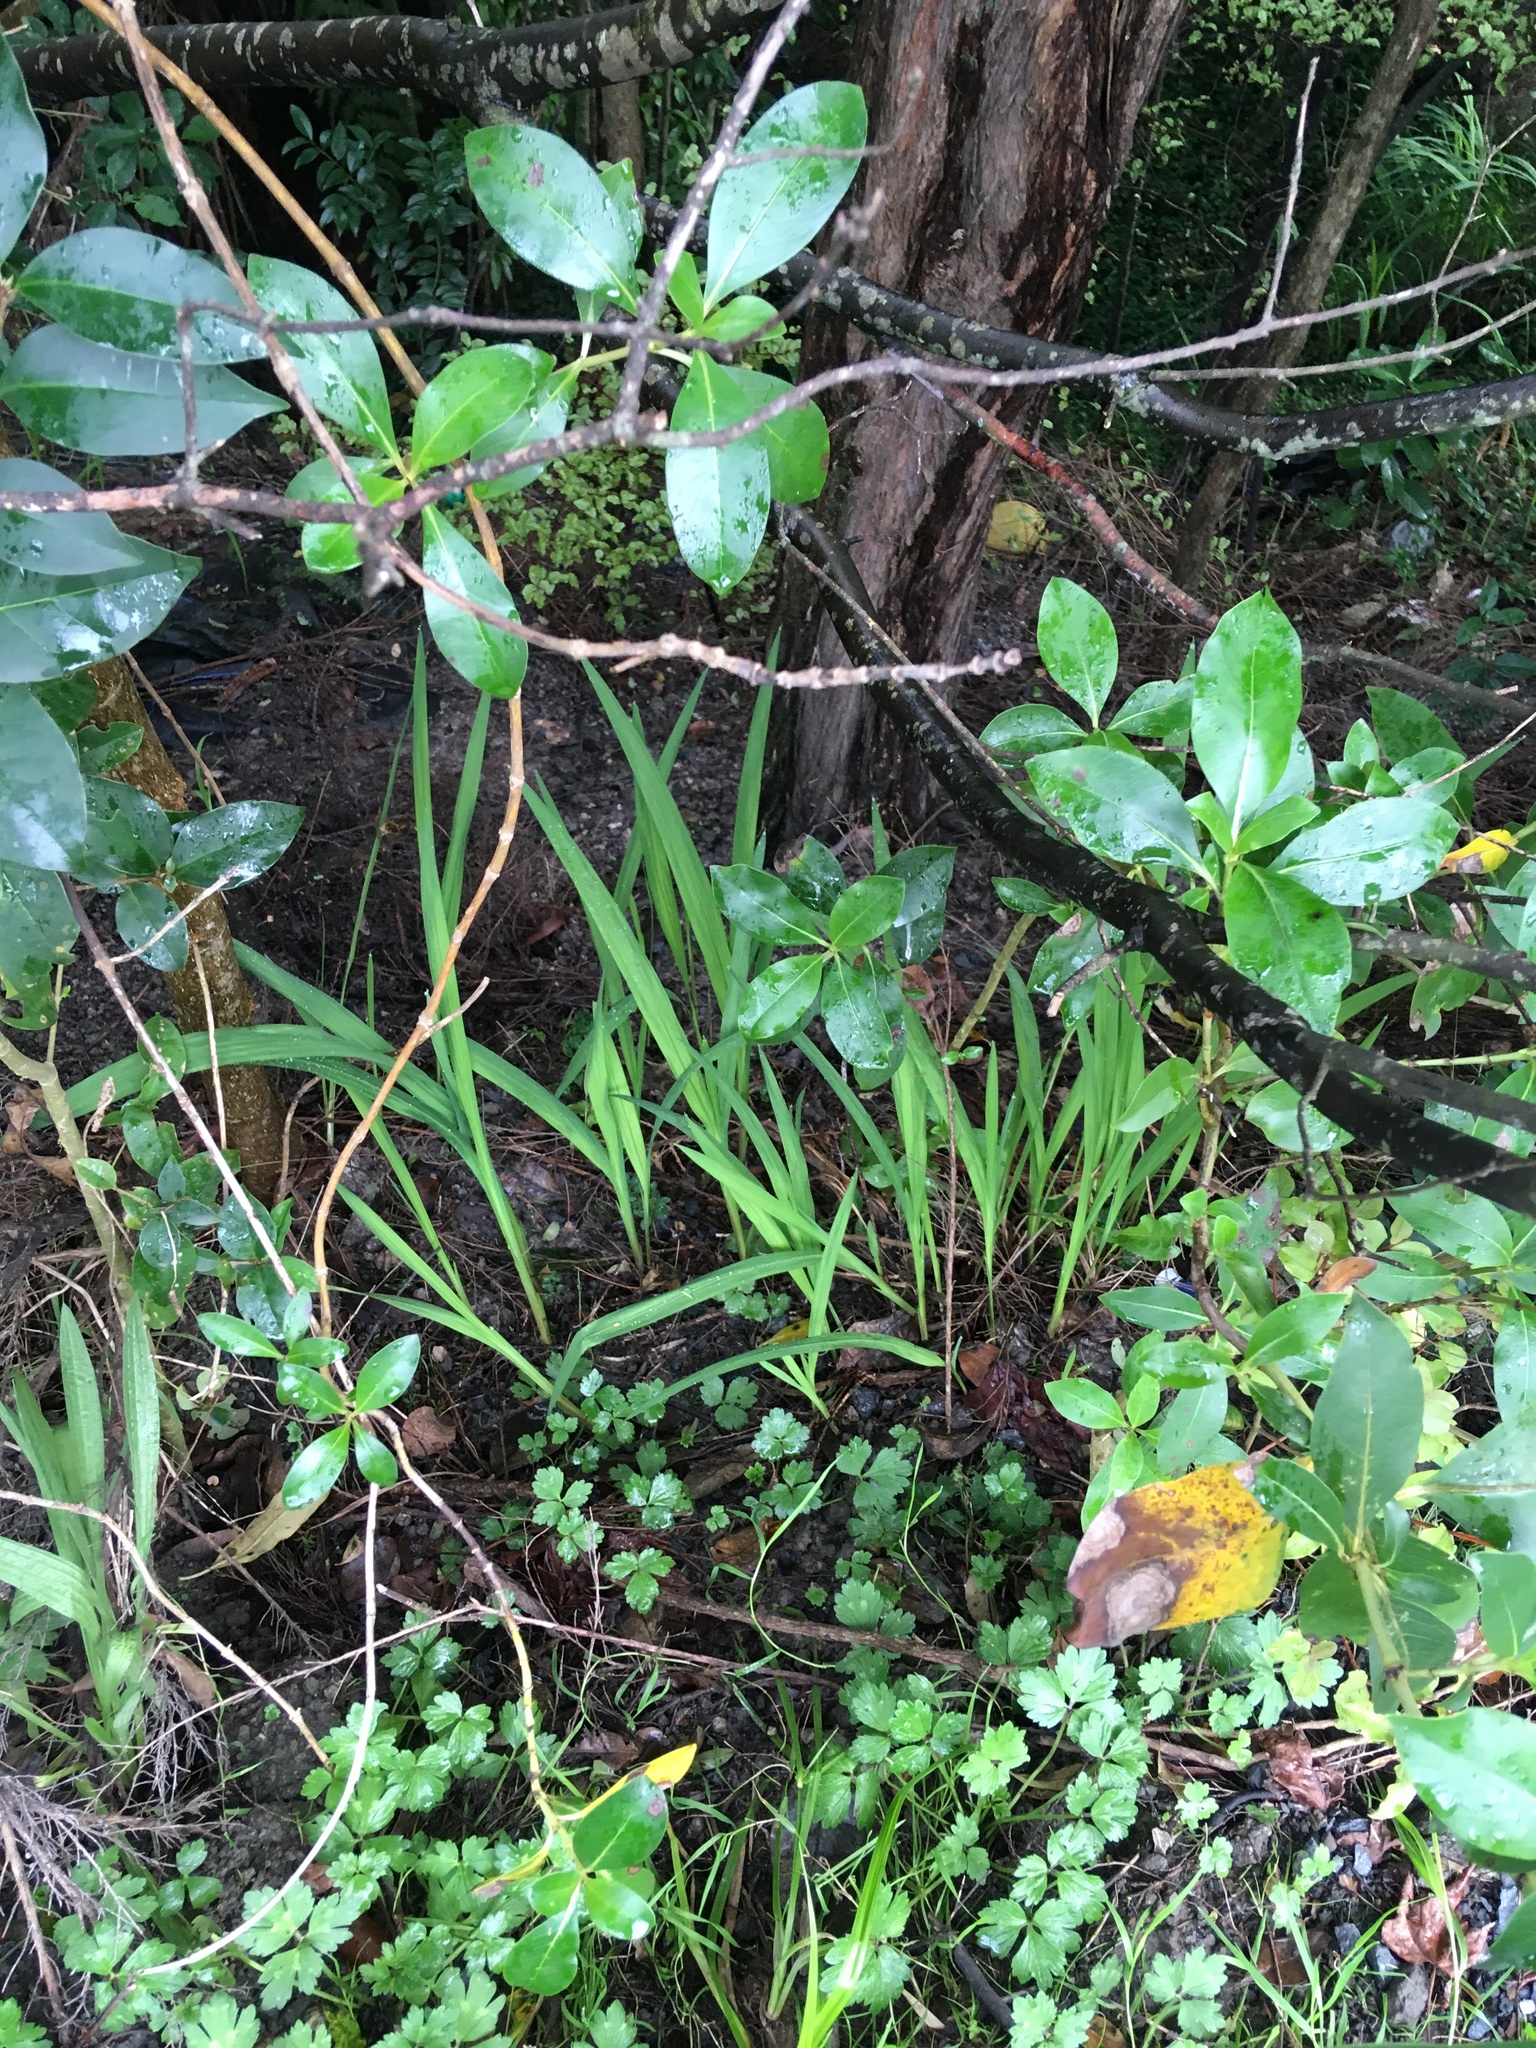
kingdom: Plantae
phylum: Tracheophyta
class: Liliopsida
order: Asparagales
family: Iridaceae
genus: Crocosmia
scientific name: Crocosmia crocosmiiflora
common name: Montbretia
